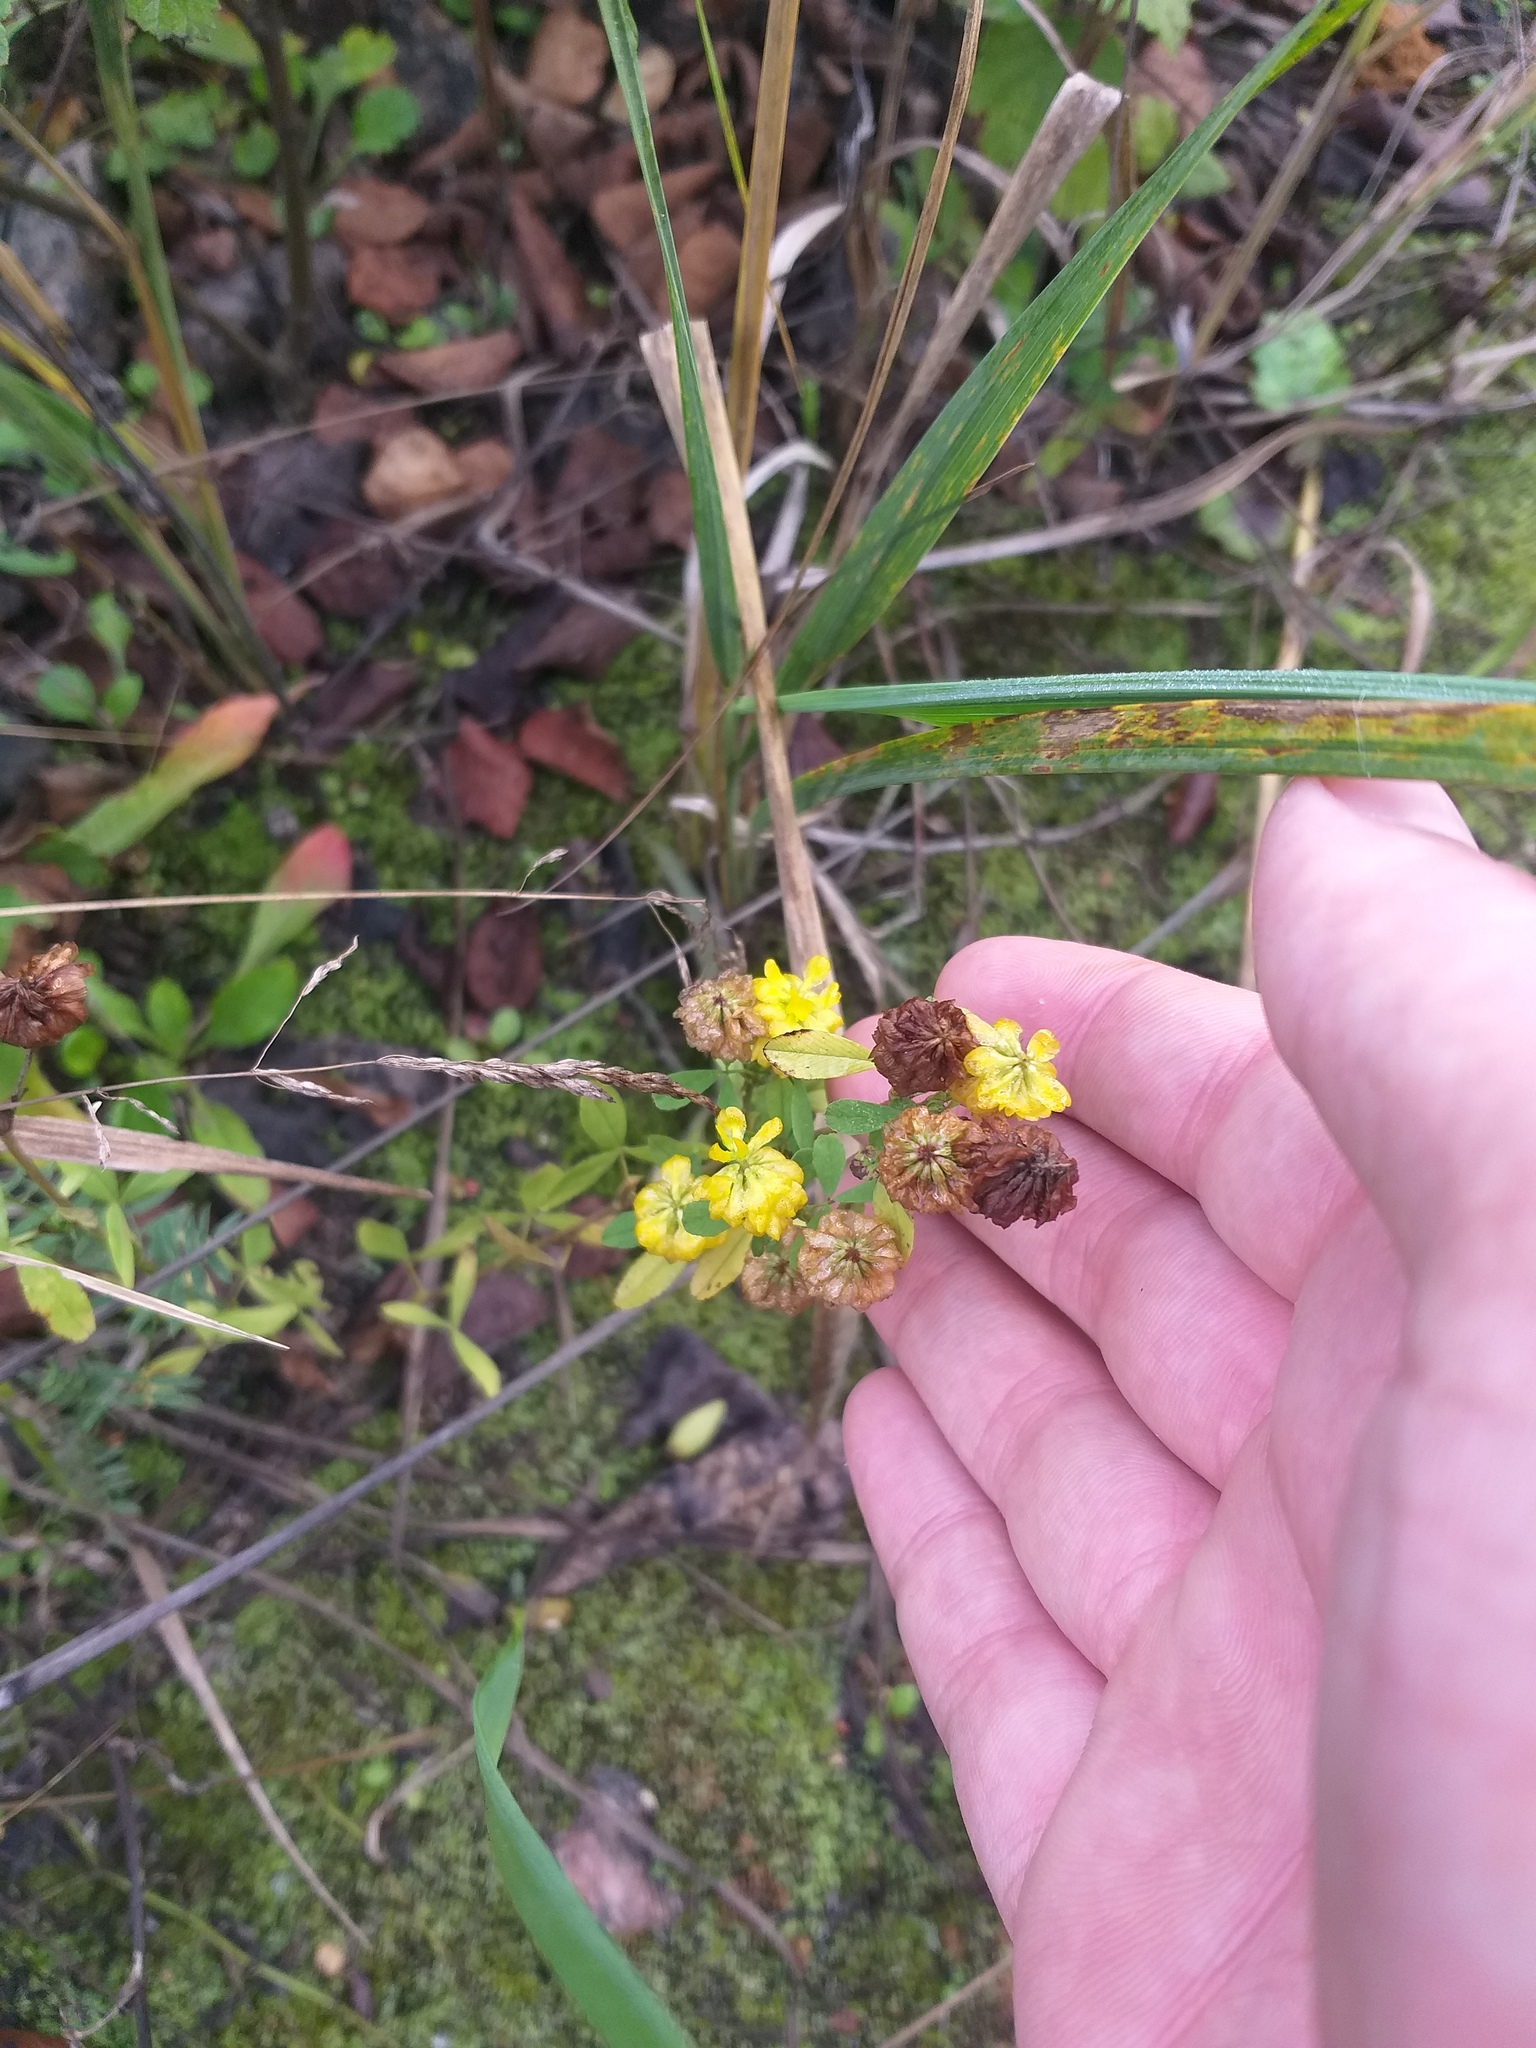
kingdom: Plantae
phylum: Tracheophyta
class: Magnoliopsida
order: Fabales
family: Fabaceae
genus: Trifolium
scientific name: Trifolium aureum
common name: Golden clover
